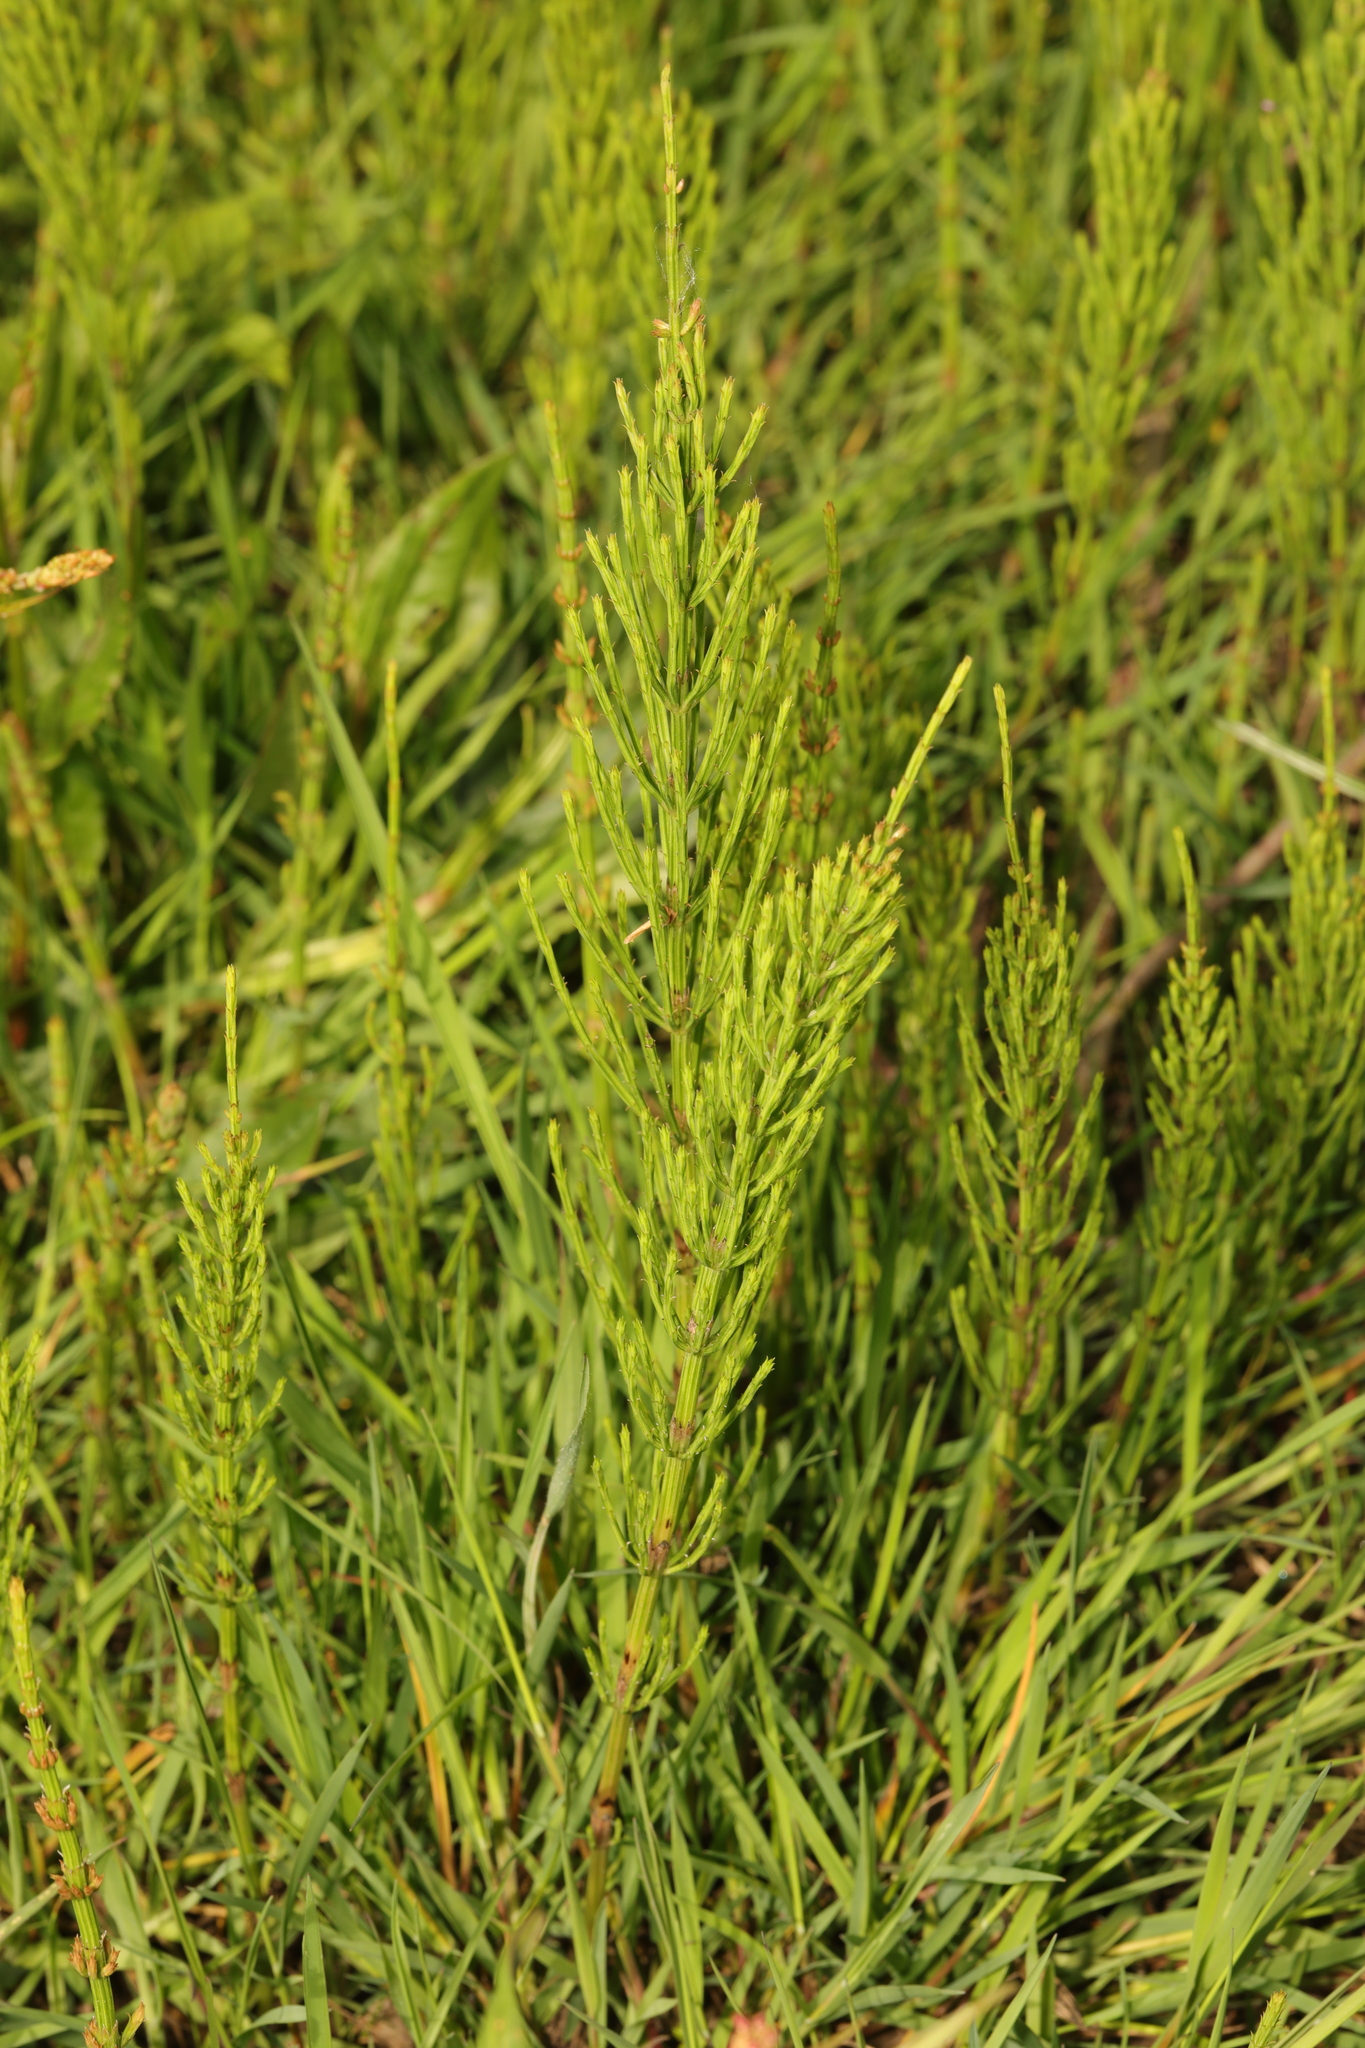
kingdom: Plantae
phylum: Tracheophyta
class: Polypodiopsida
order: Equisetales
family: Equisetaceae
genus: Equisetum
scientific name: Equisetum arvense
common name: Field horsetail
